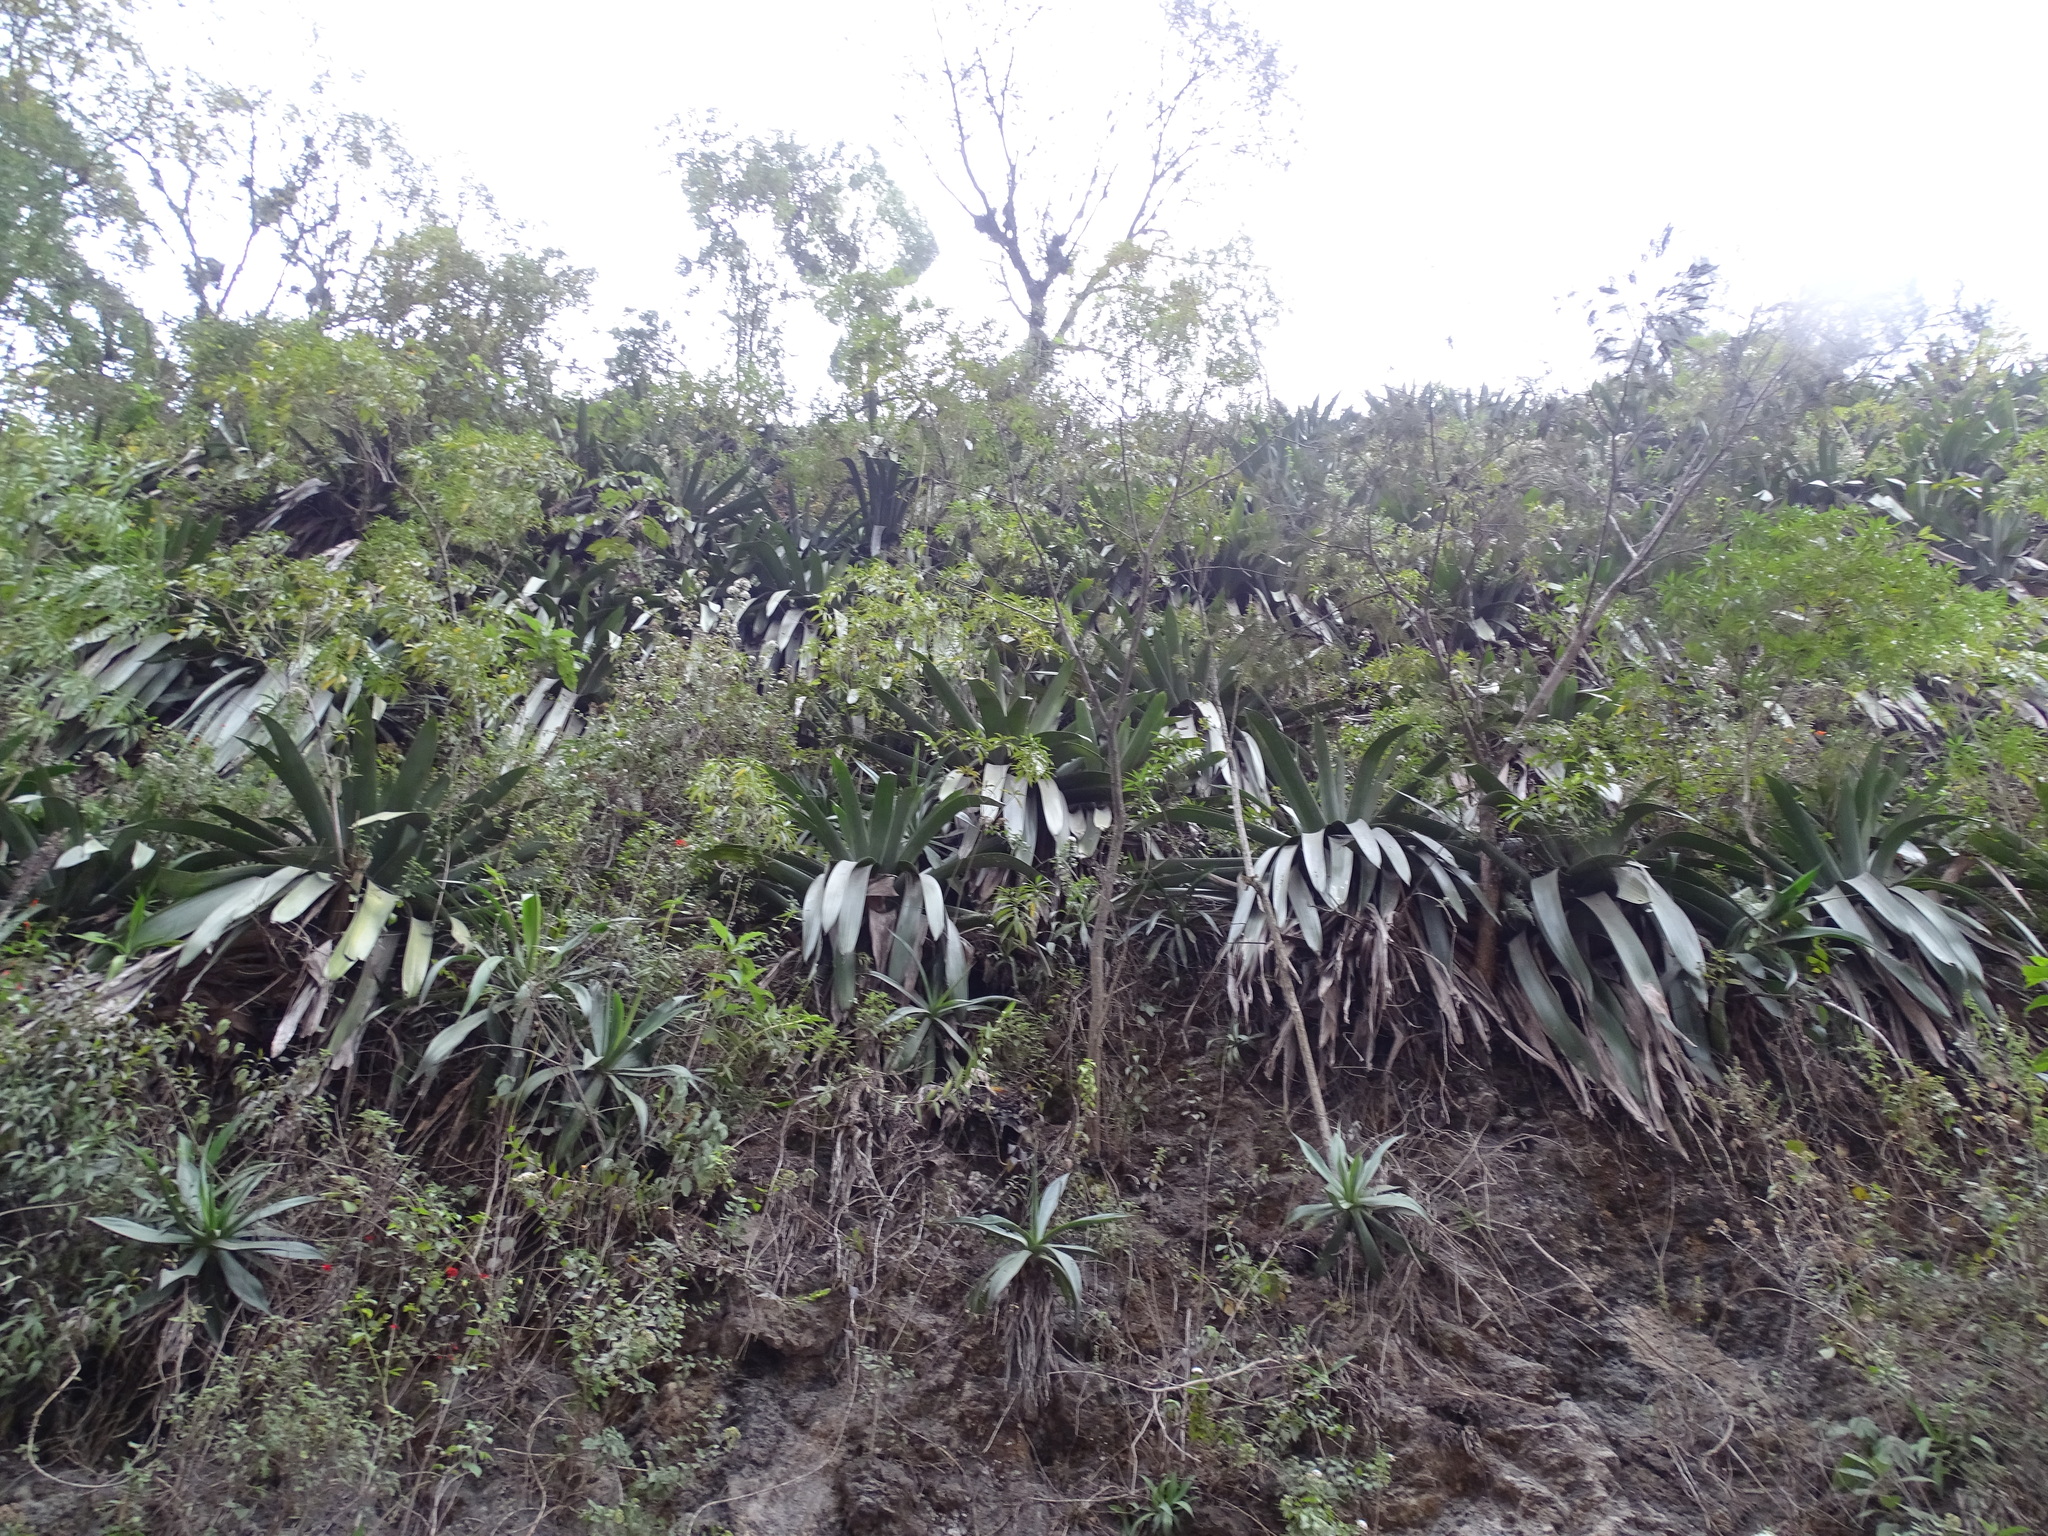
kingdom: Plantae
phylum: Tracheophyta
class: Liliopsida
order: Poales
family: Bromeliaceae
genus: Pseudalcantarea
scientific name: Pseudalcantarea grandis
